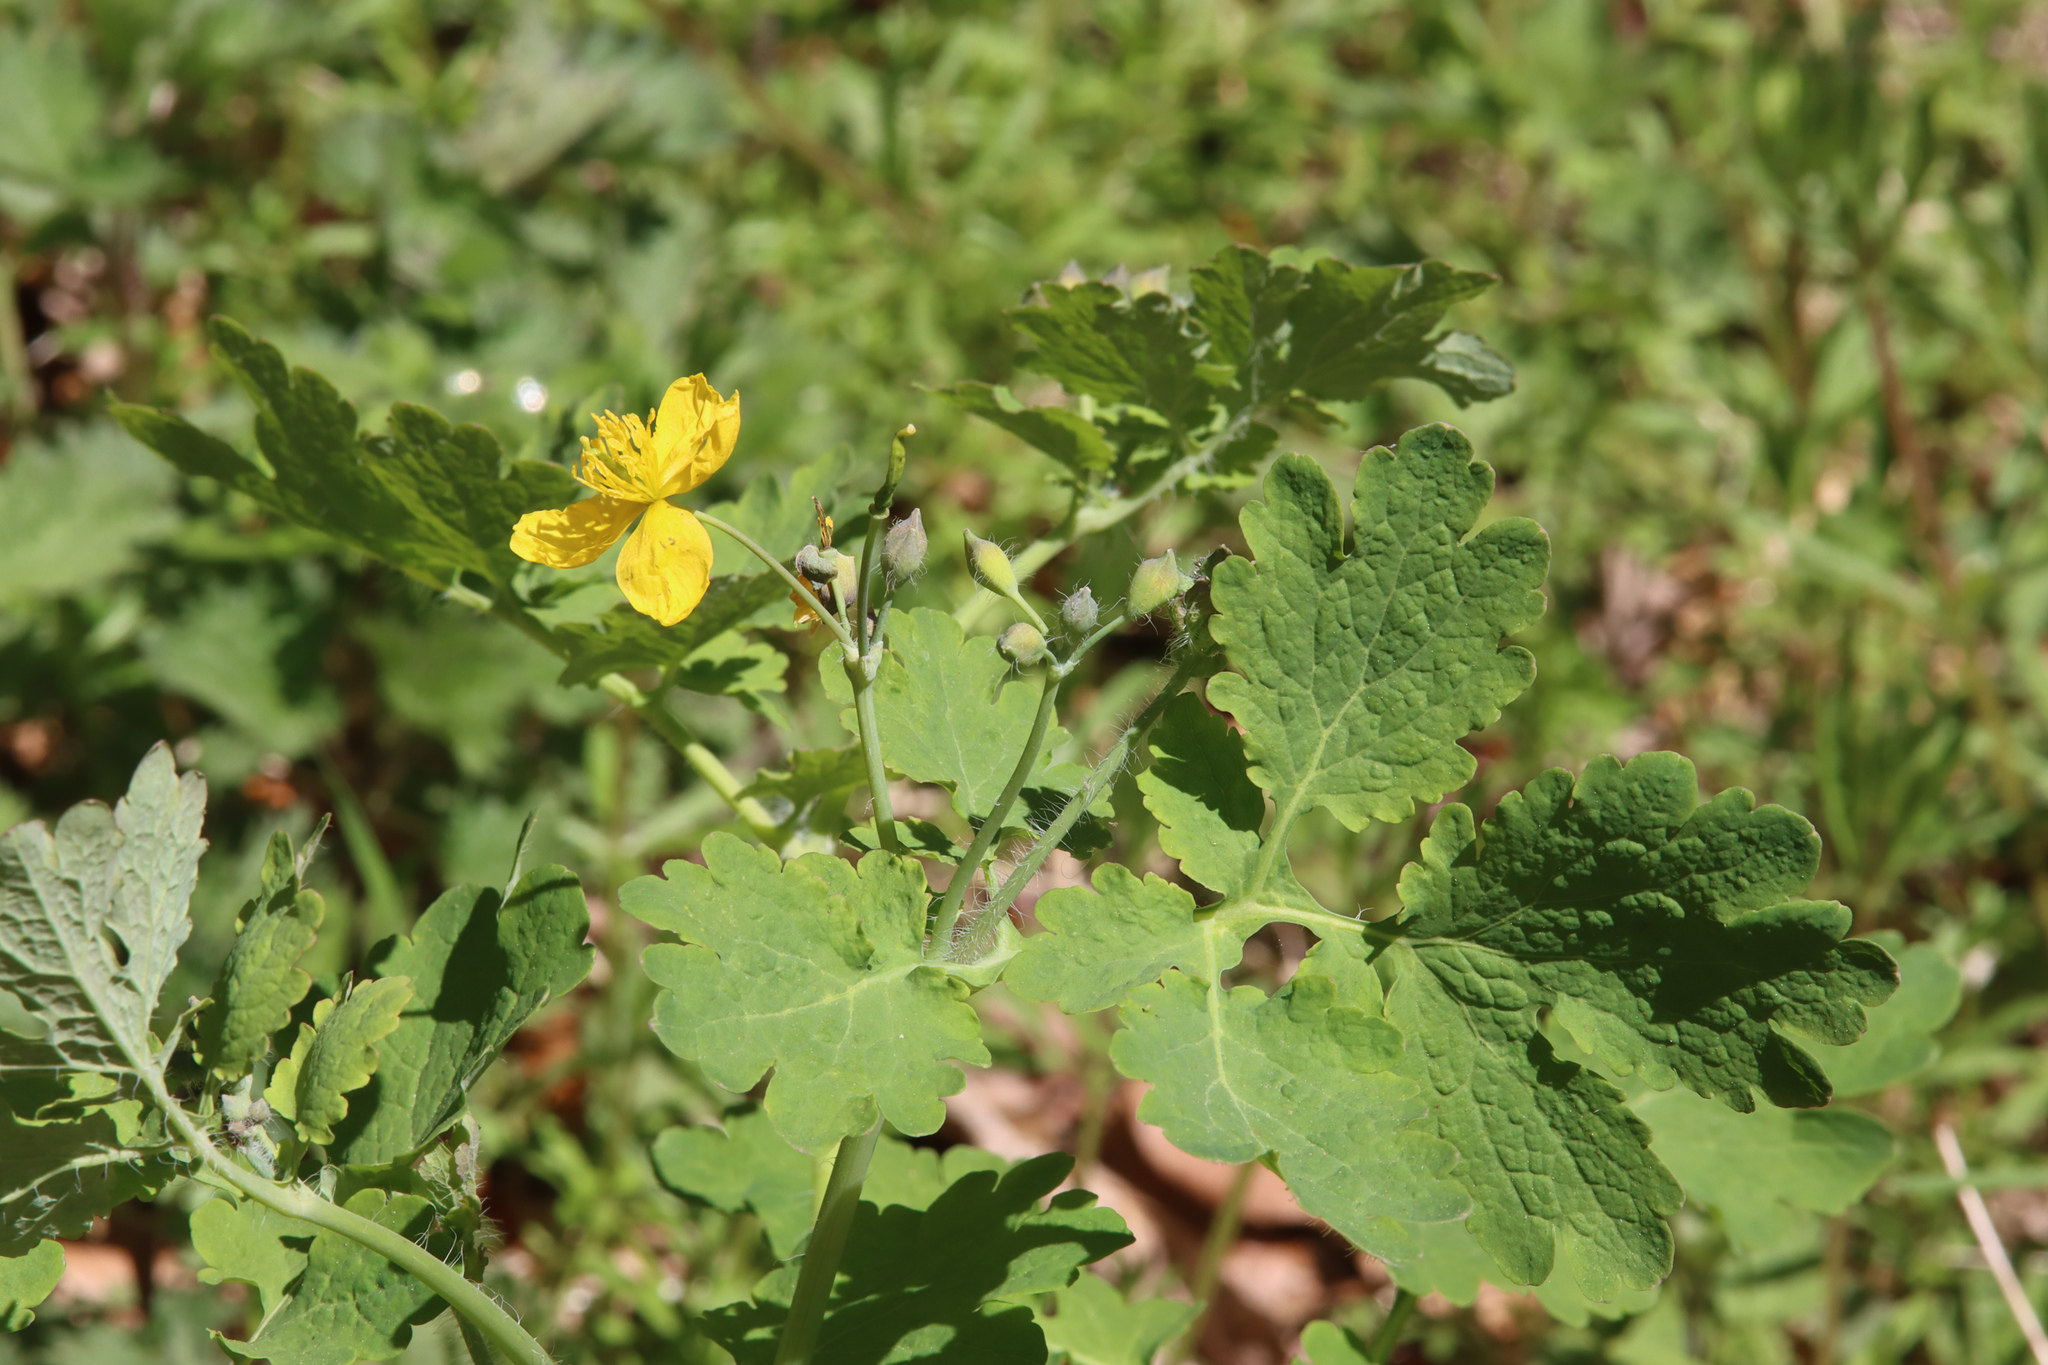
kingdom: Plantae
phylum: Tracheophyta
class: Magnoliopsida
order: Ranunculales
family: Papaveraceae
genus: Chelidonium
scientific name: Chelidonium majus
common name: Greater celandine
